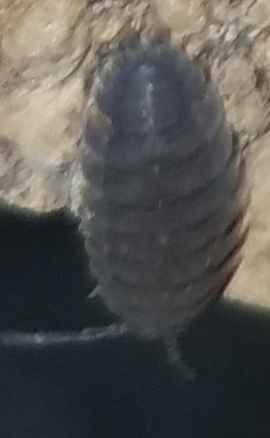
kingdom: Animalia
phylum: Arthropoda
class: Malacostraca
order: Isopoda
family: Porcellionidae
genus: Porcellio
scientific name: Porcellio scaber
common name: Common rough woodlouse
